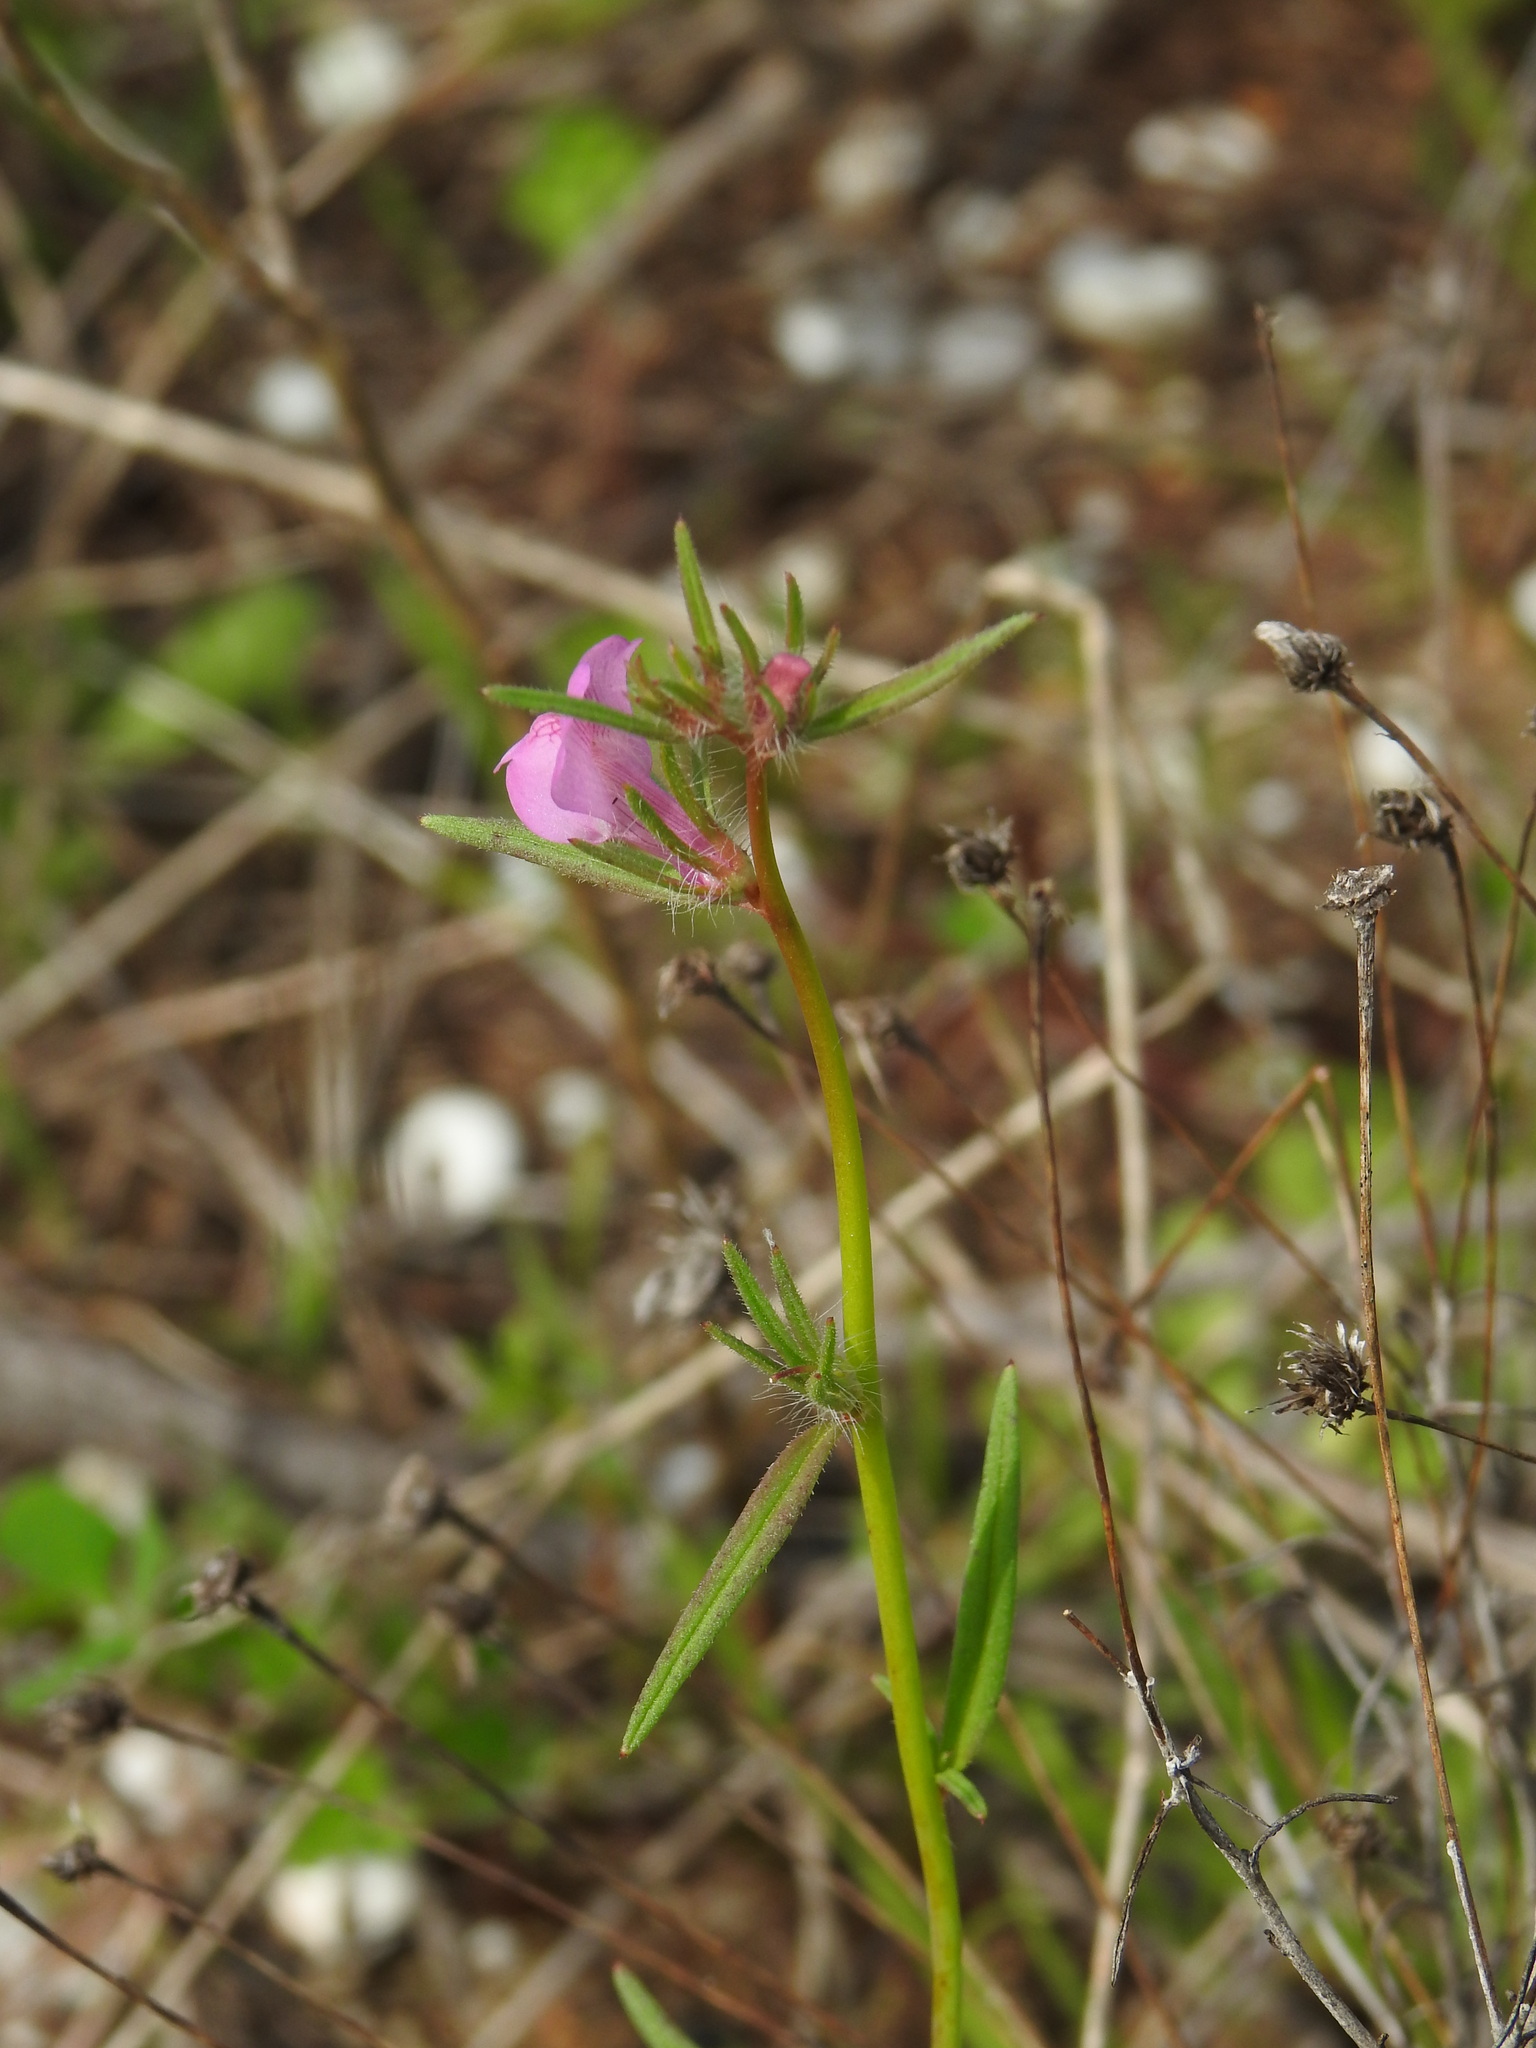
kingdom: Plantae
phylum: Tracheophyta
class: Magnoliopsida
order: Lamiales
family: Plantaginaceae
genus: Misopates
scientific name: Misopates orontium
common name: Weasel's-snout
